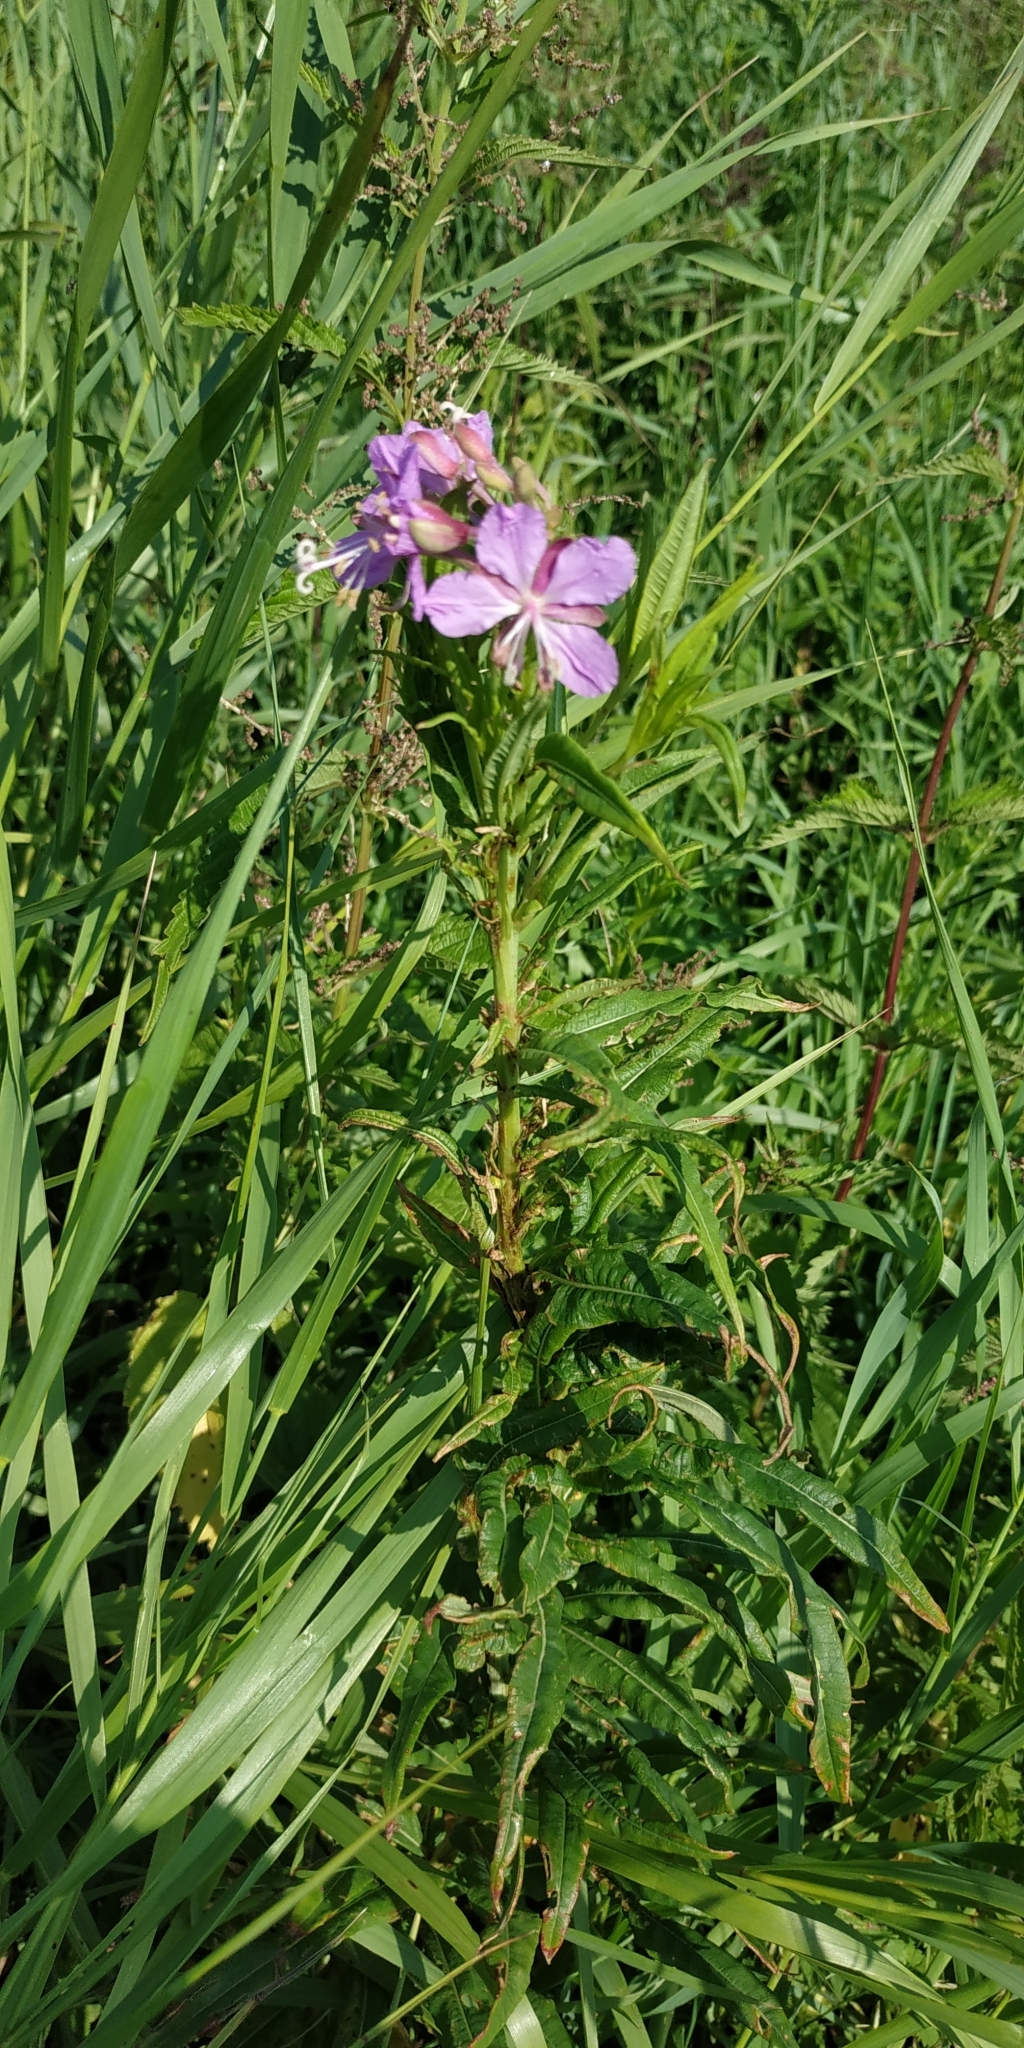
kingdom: Plantae
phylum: Tracheophyta
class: Magnoliopsida
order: Myrtales
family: Onagraceae
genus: Chamaenerion
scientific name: Chamaenerion angustifolium
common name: Fireweed
